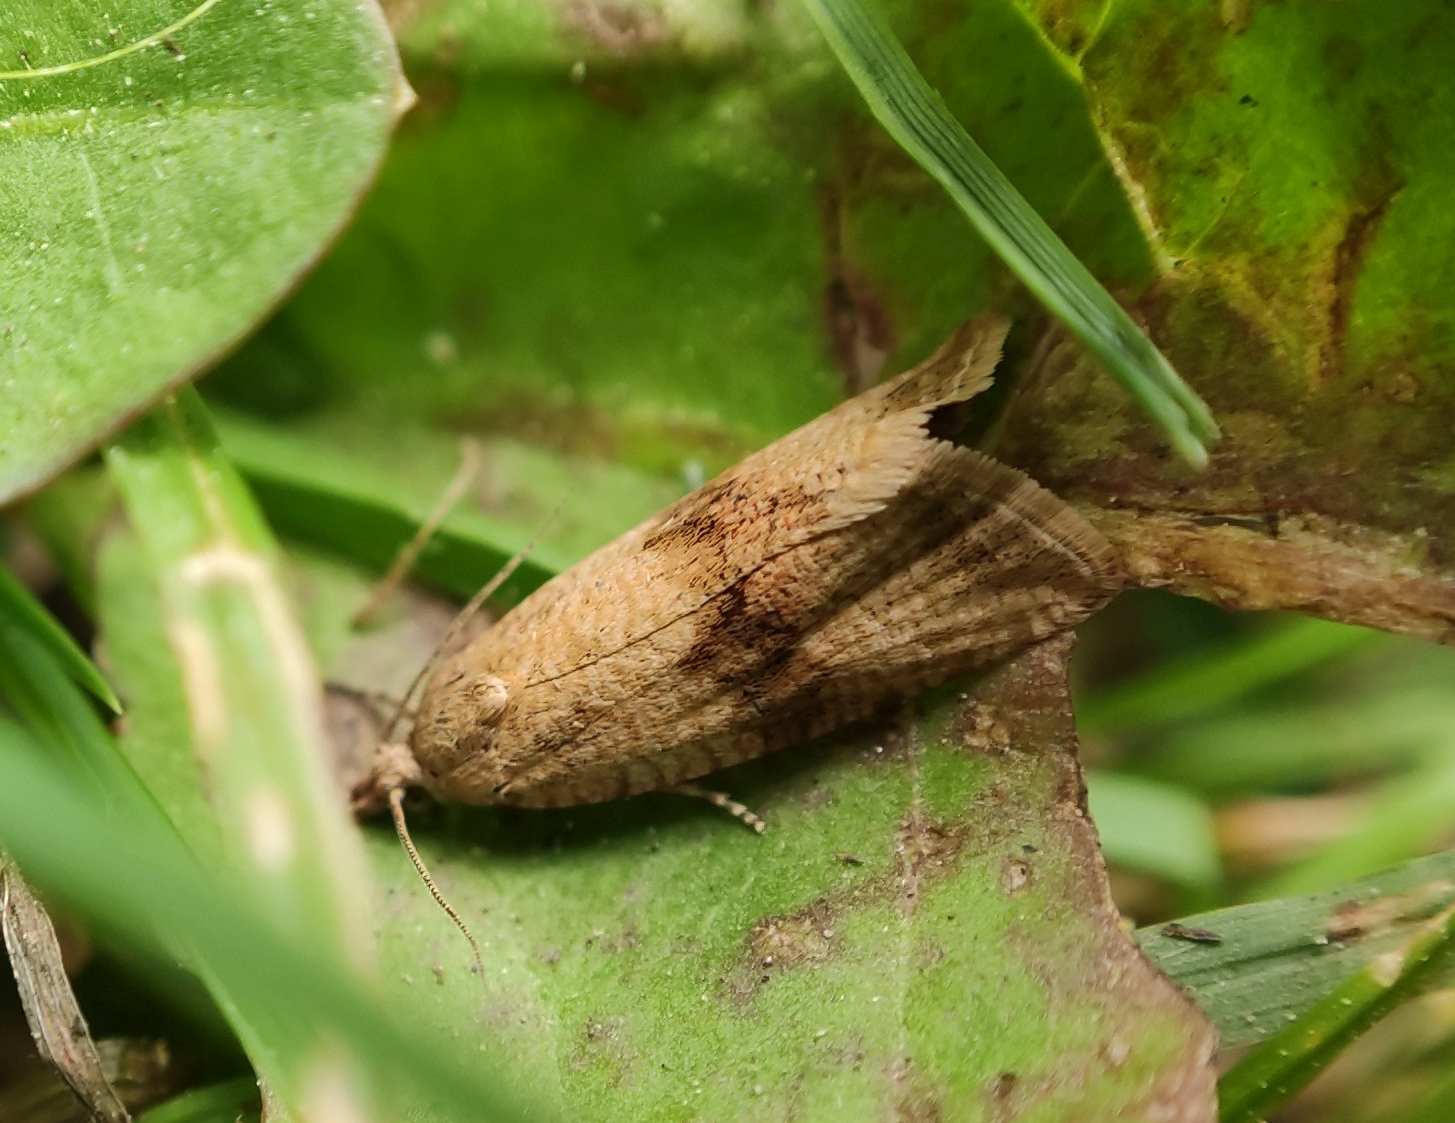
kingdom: Animalia
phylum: Arthropoda
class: Insecta
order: Lepidoptera
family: Tortricidae
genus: Celypha
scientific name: Celypha striana
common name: Barred marble
